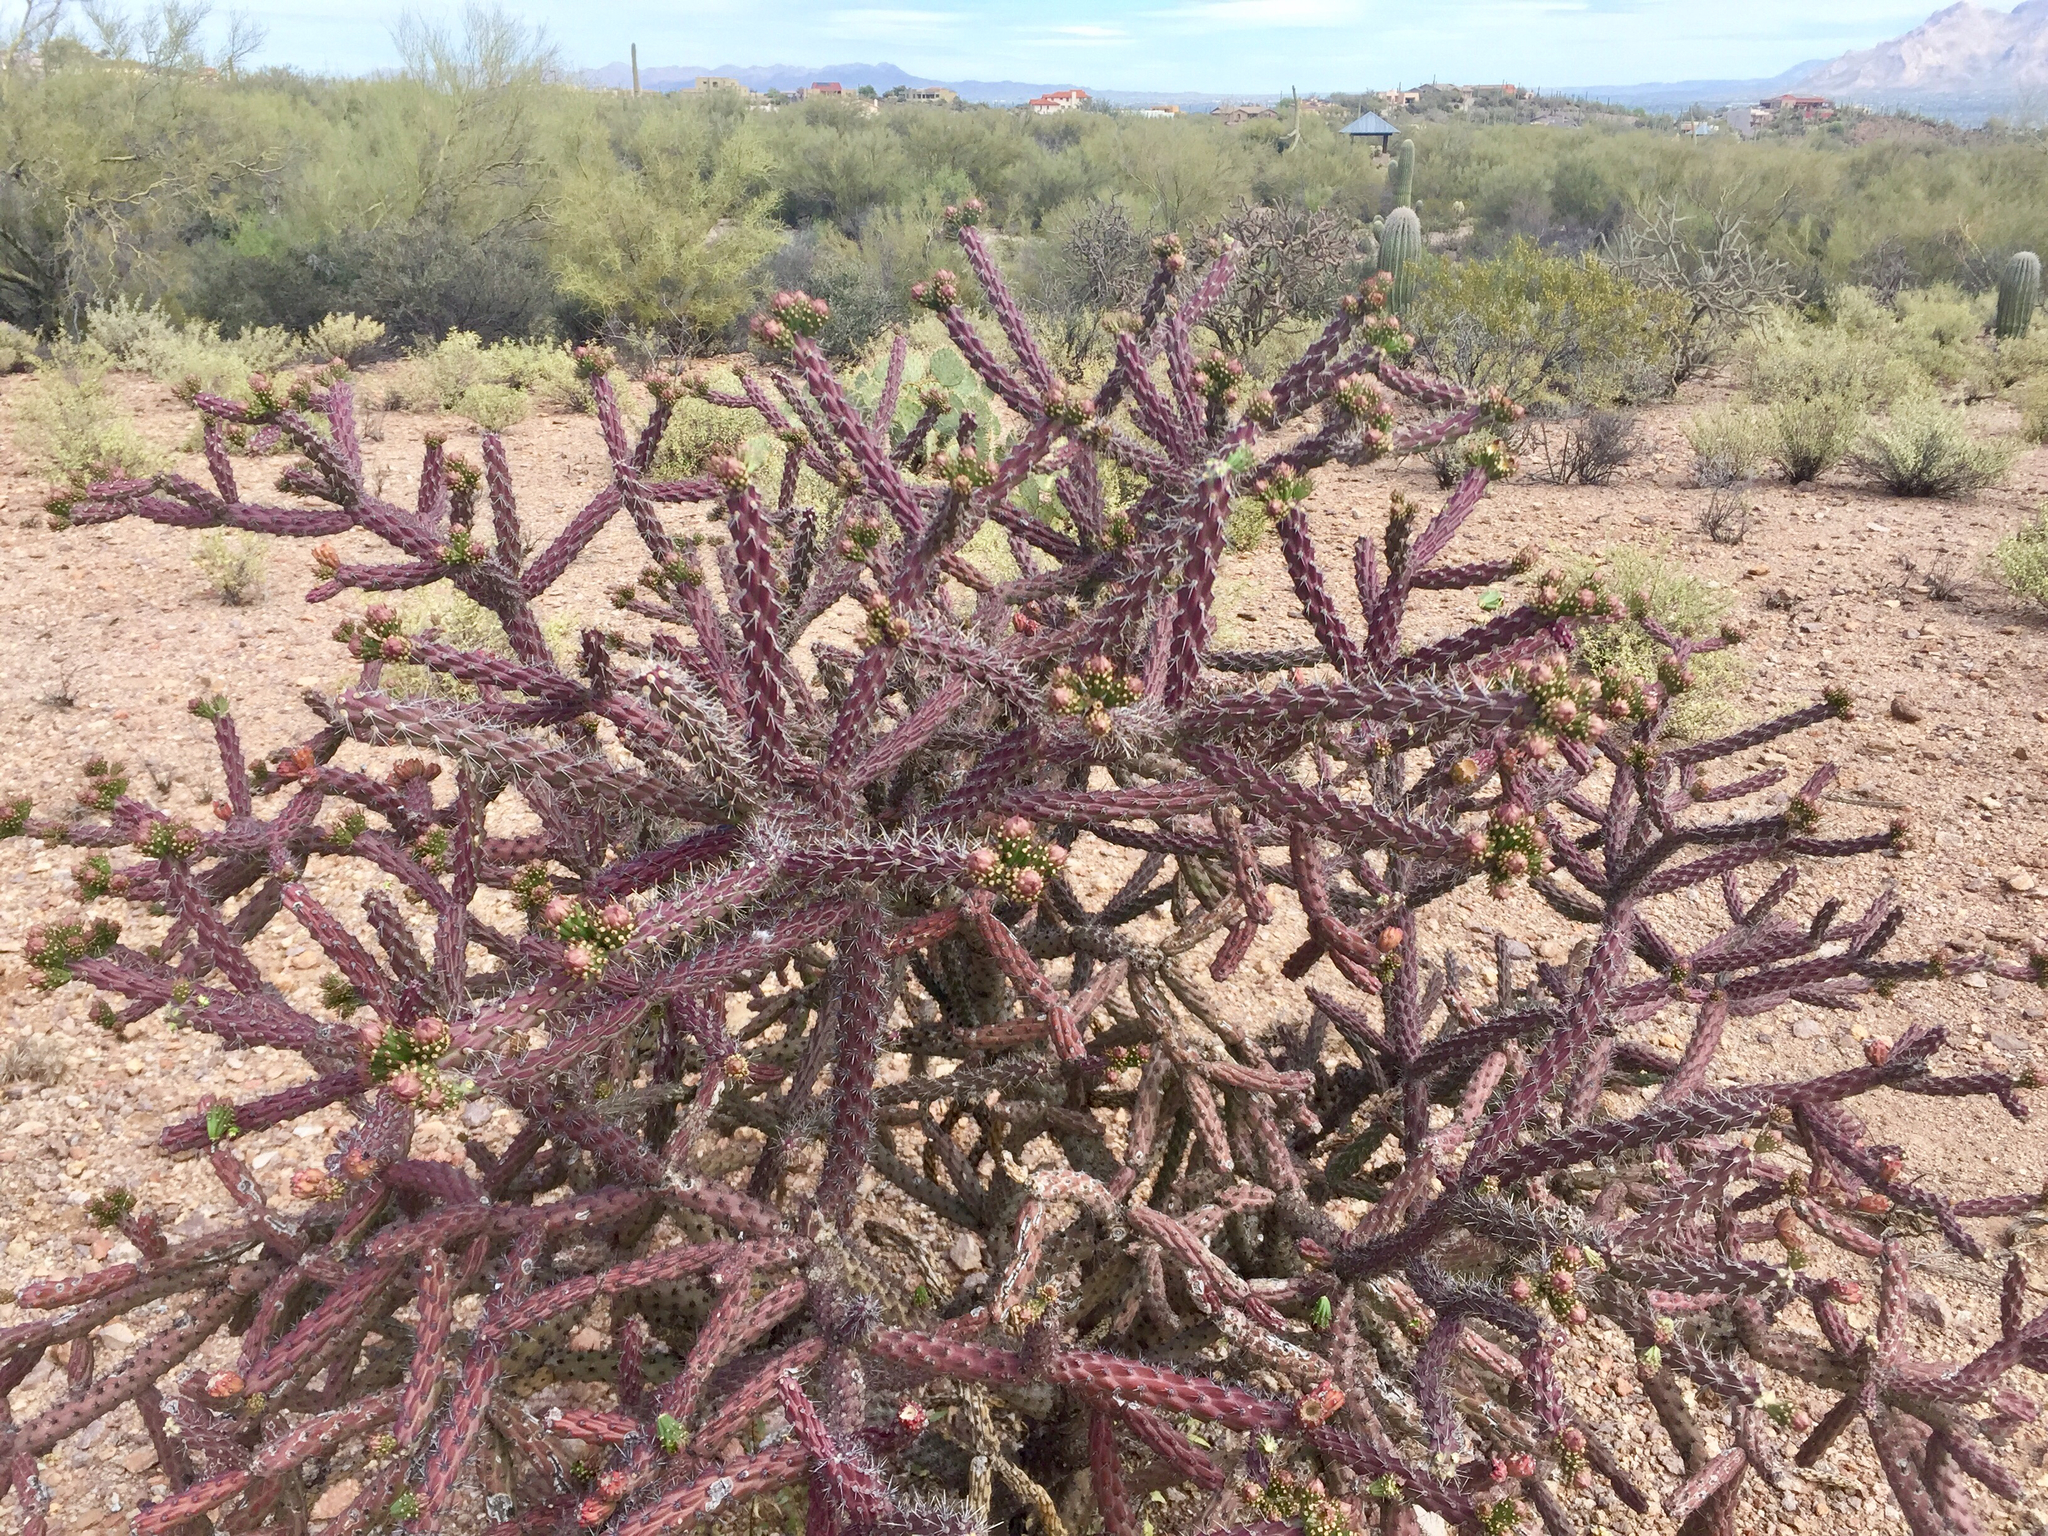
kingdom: Plantae
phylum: Tracheophyta
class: Magnoliopsida
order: Caryophyllales
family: Cactaceae
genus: Cylindropuntia
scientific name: Cylindropuntia thurberi
